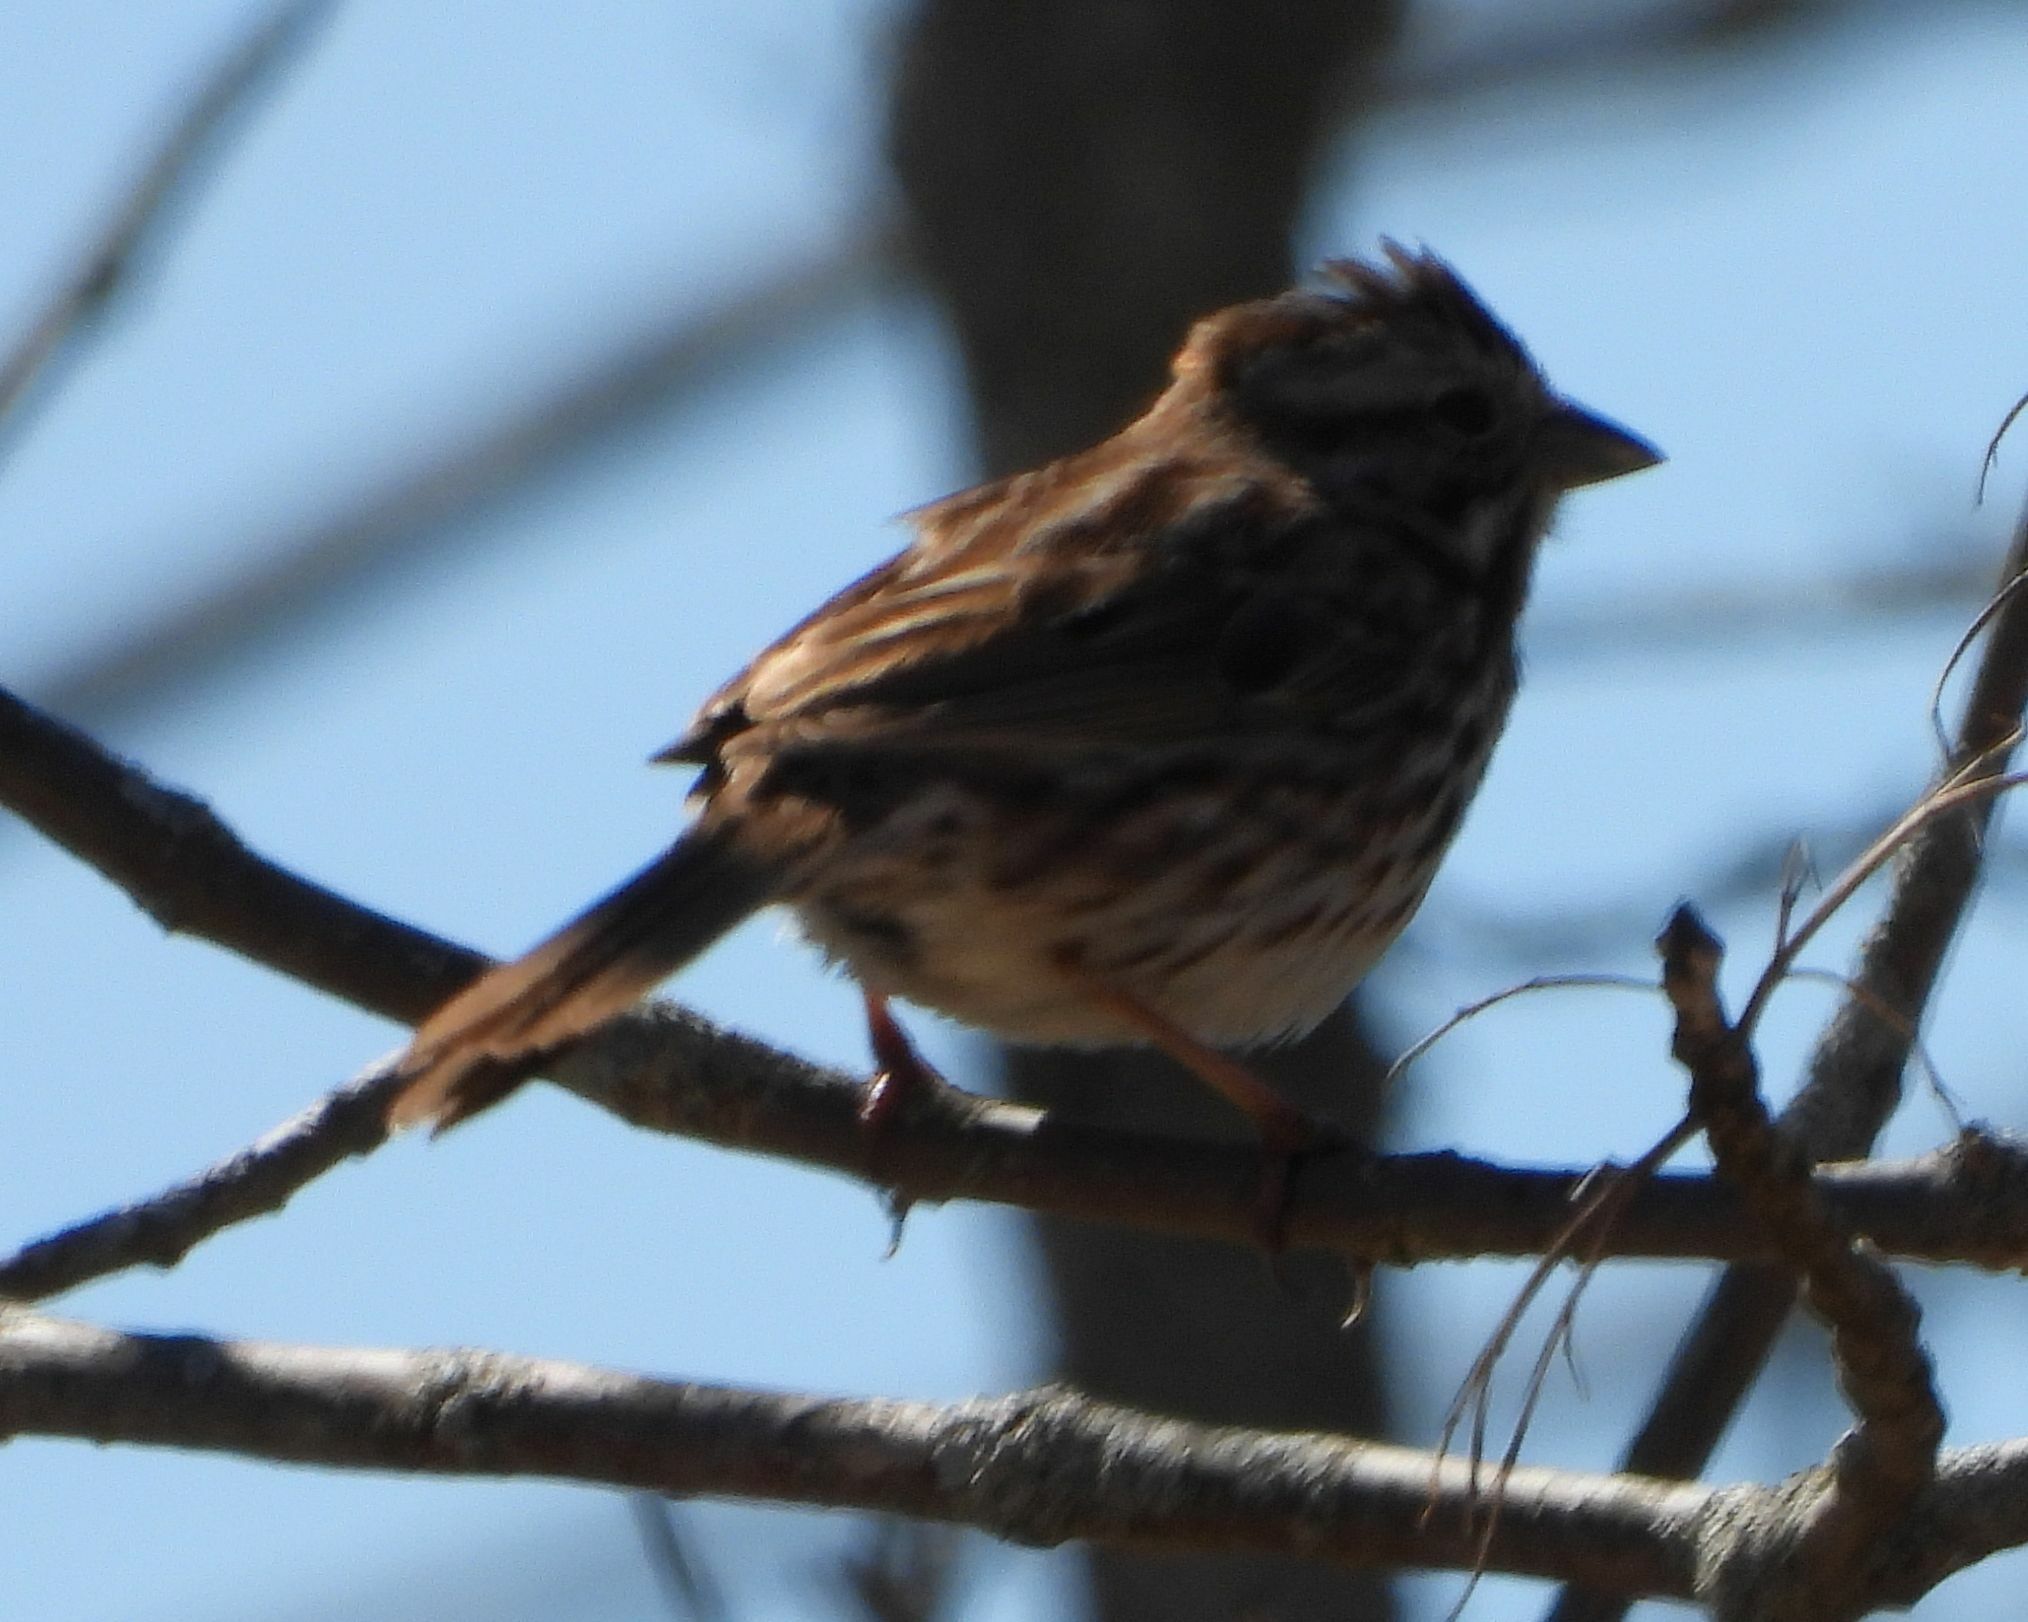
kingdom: Animalia
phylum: Chordata
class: Aves
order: Passeriformes
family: Passerellidae
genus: Melospiza
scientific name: Melospiza melodia
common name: Song sparrow
